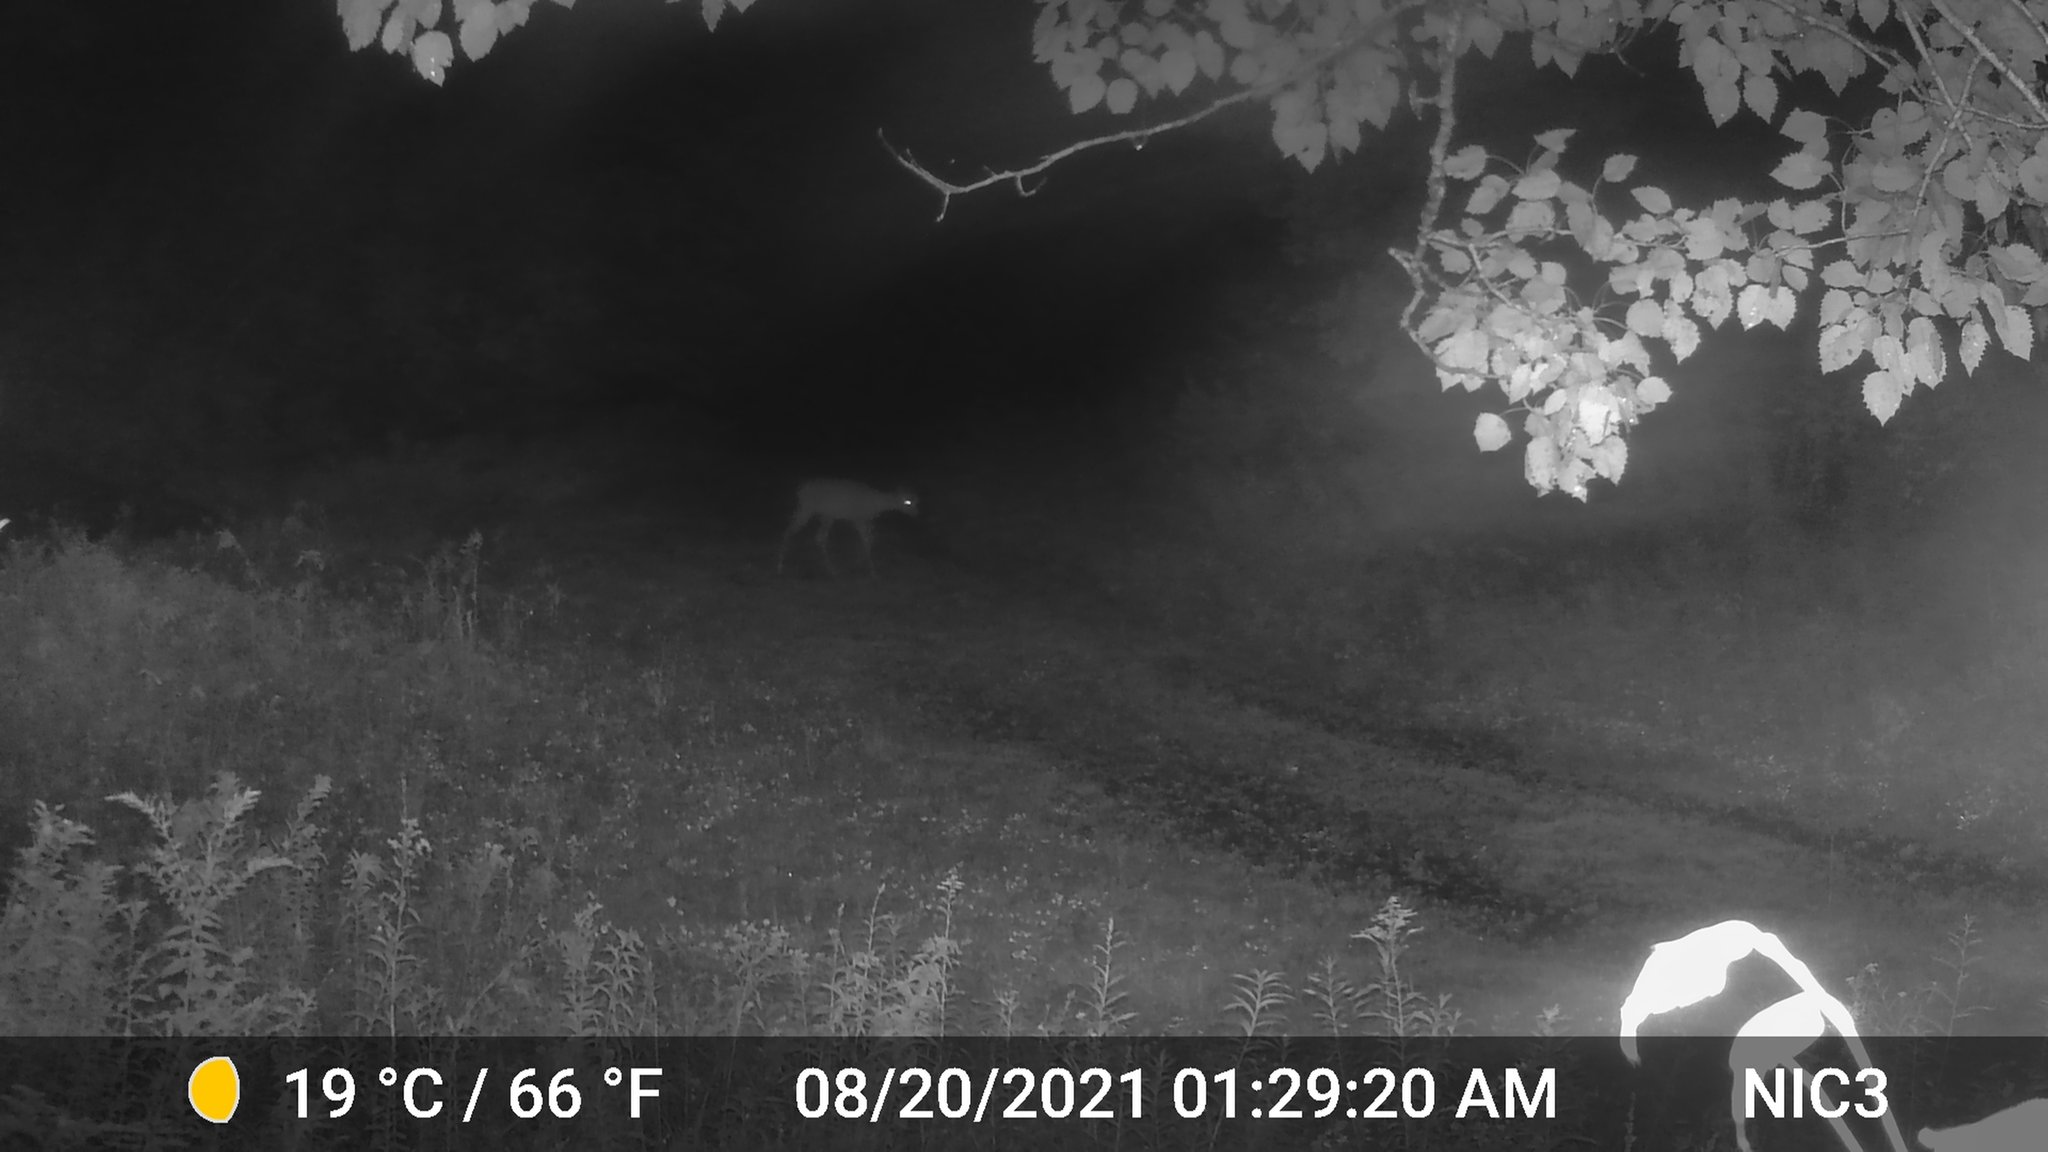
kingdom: Animalia
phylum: Chordata
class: Mammalia
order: Artiodactyla
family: Cervidae
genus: Odocoileus
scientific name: Odocoileus virginianus
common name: White-tailed deer
